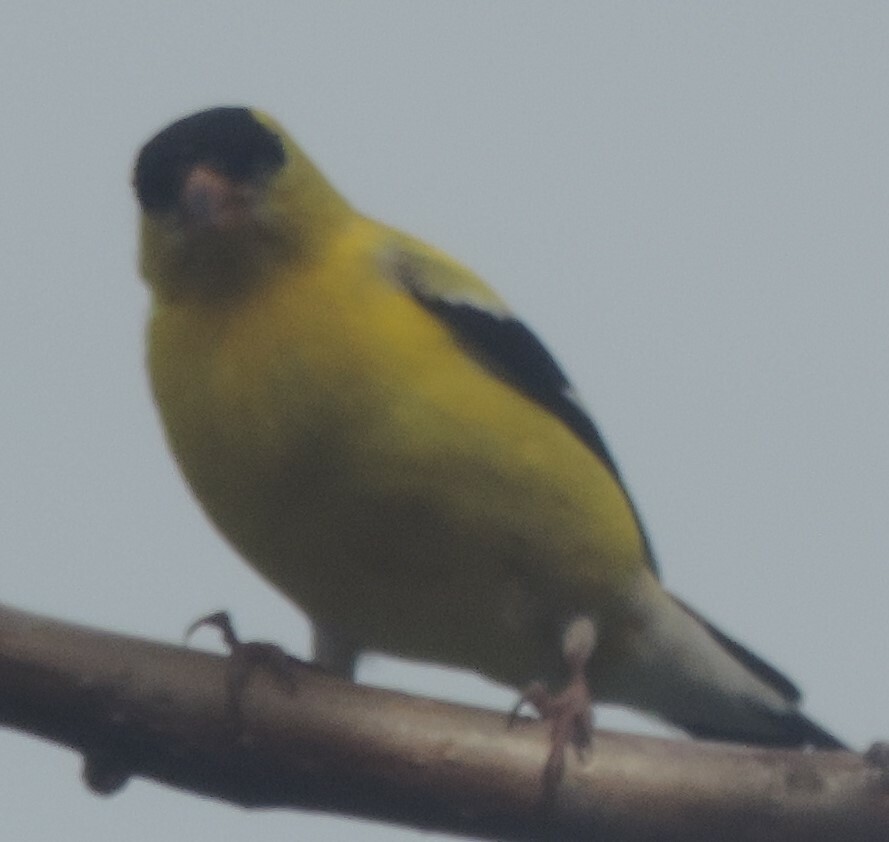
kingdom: Animalia
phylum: Chordata
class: Aves
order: Passeriformes
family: Fringillidae
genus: Spinus
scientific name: Spinus tristis
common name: American goldfinch
